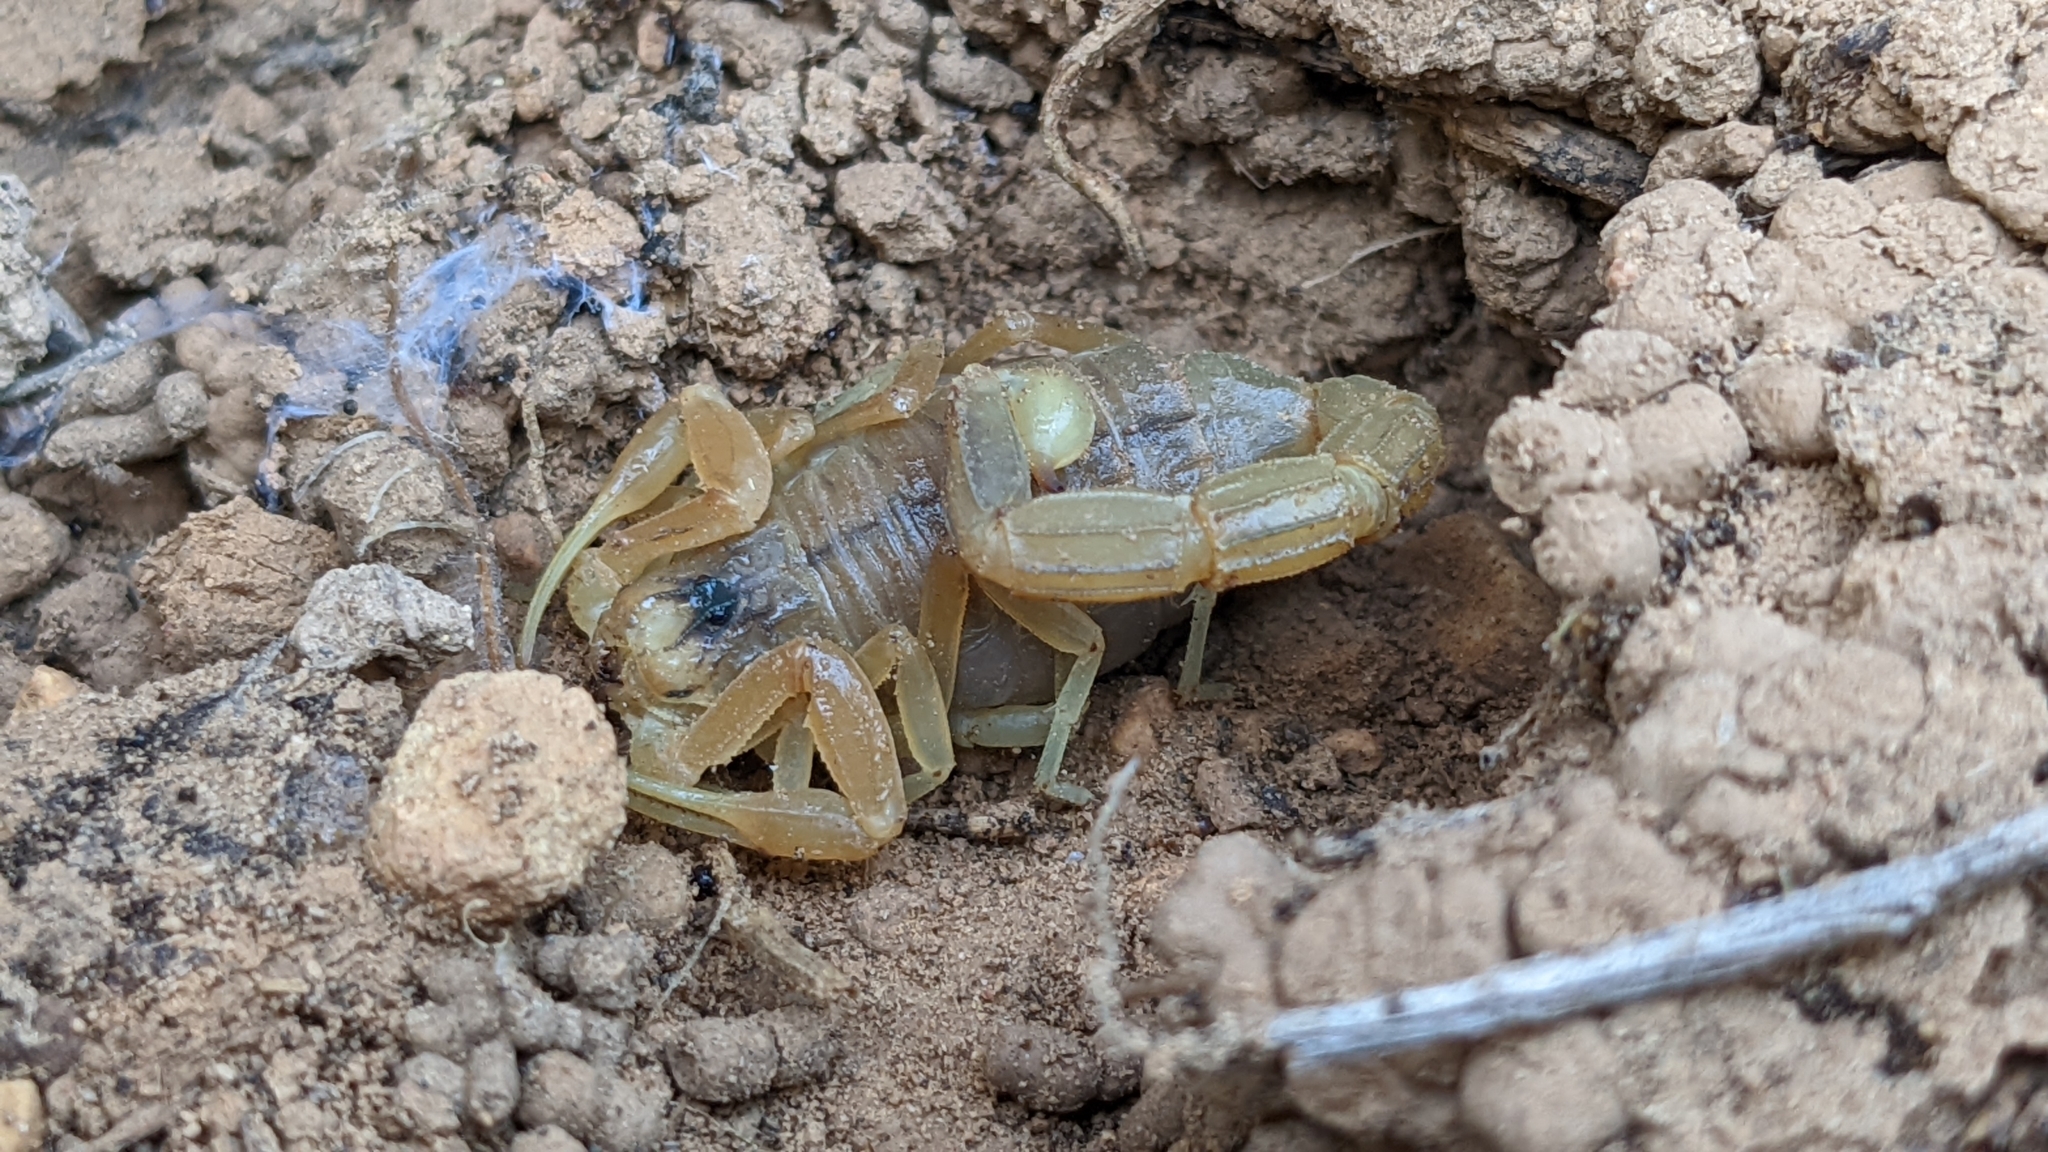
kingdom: Animalia
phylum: Arthropoda
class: Arachnida
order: Scorpiones
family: Buthidae
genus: Buthus
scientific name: Buthus occitanus
